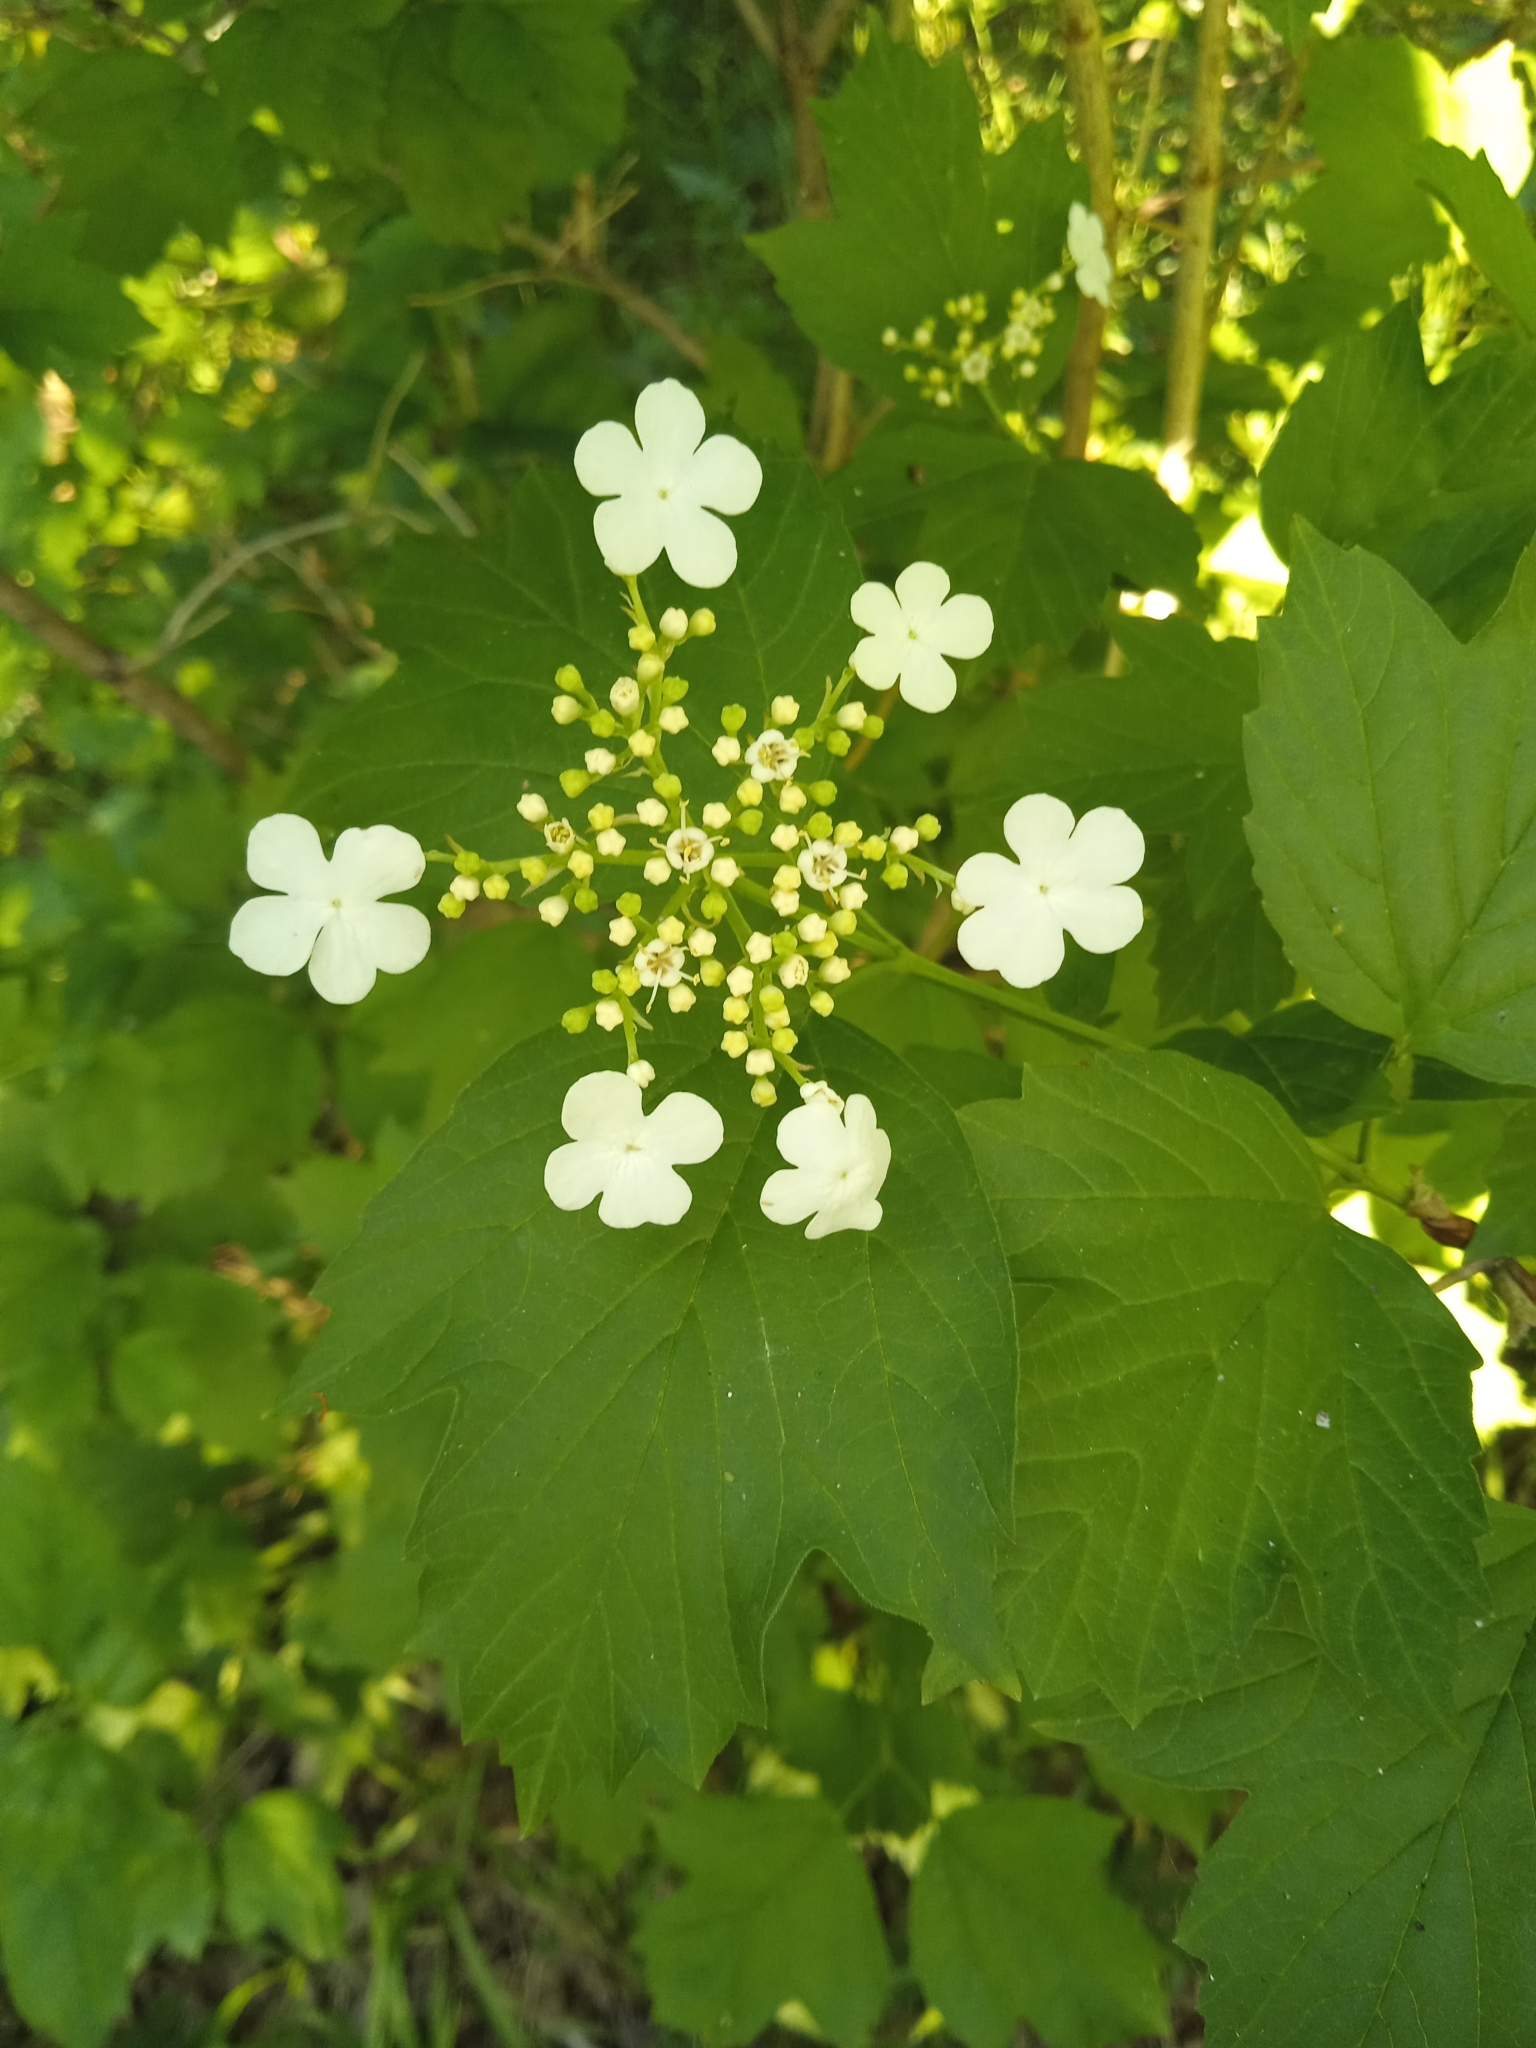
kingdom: Plantae
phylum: Tracheophyta
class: Magnoliopsida
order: Dipsacales
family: Viburnaceae
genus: Viburnum
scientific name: Viburnum opulus
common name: Guelder-rose
